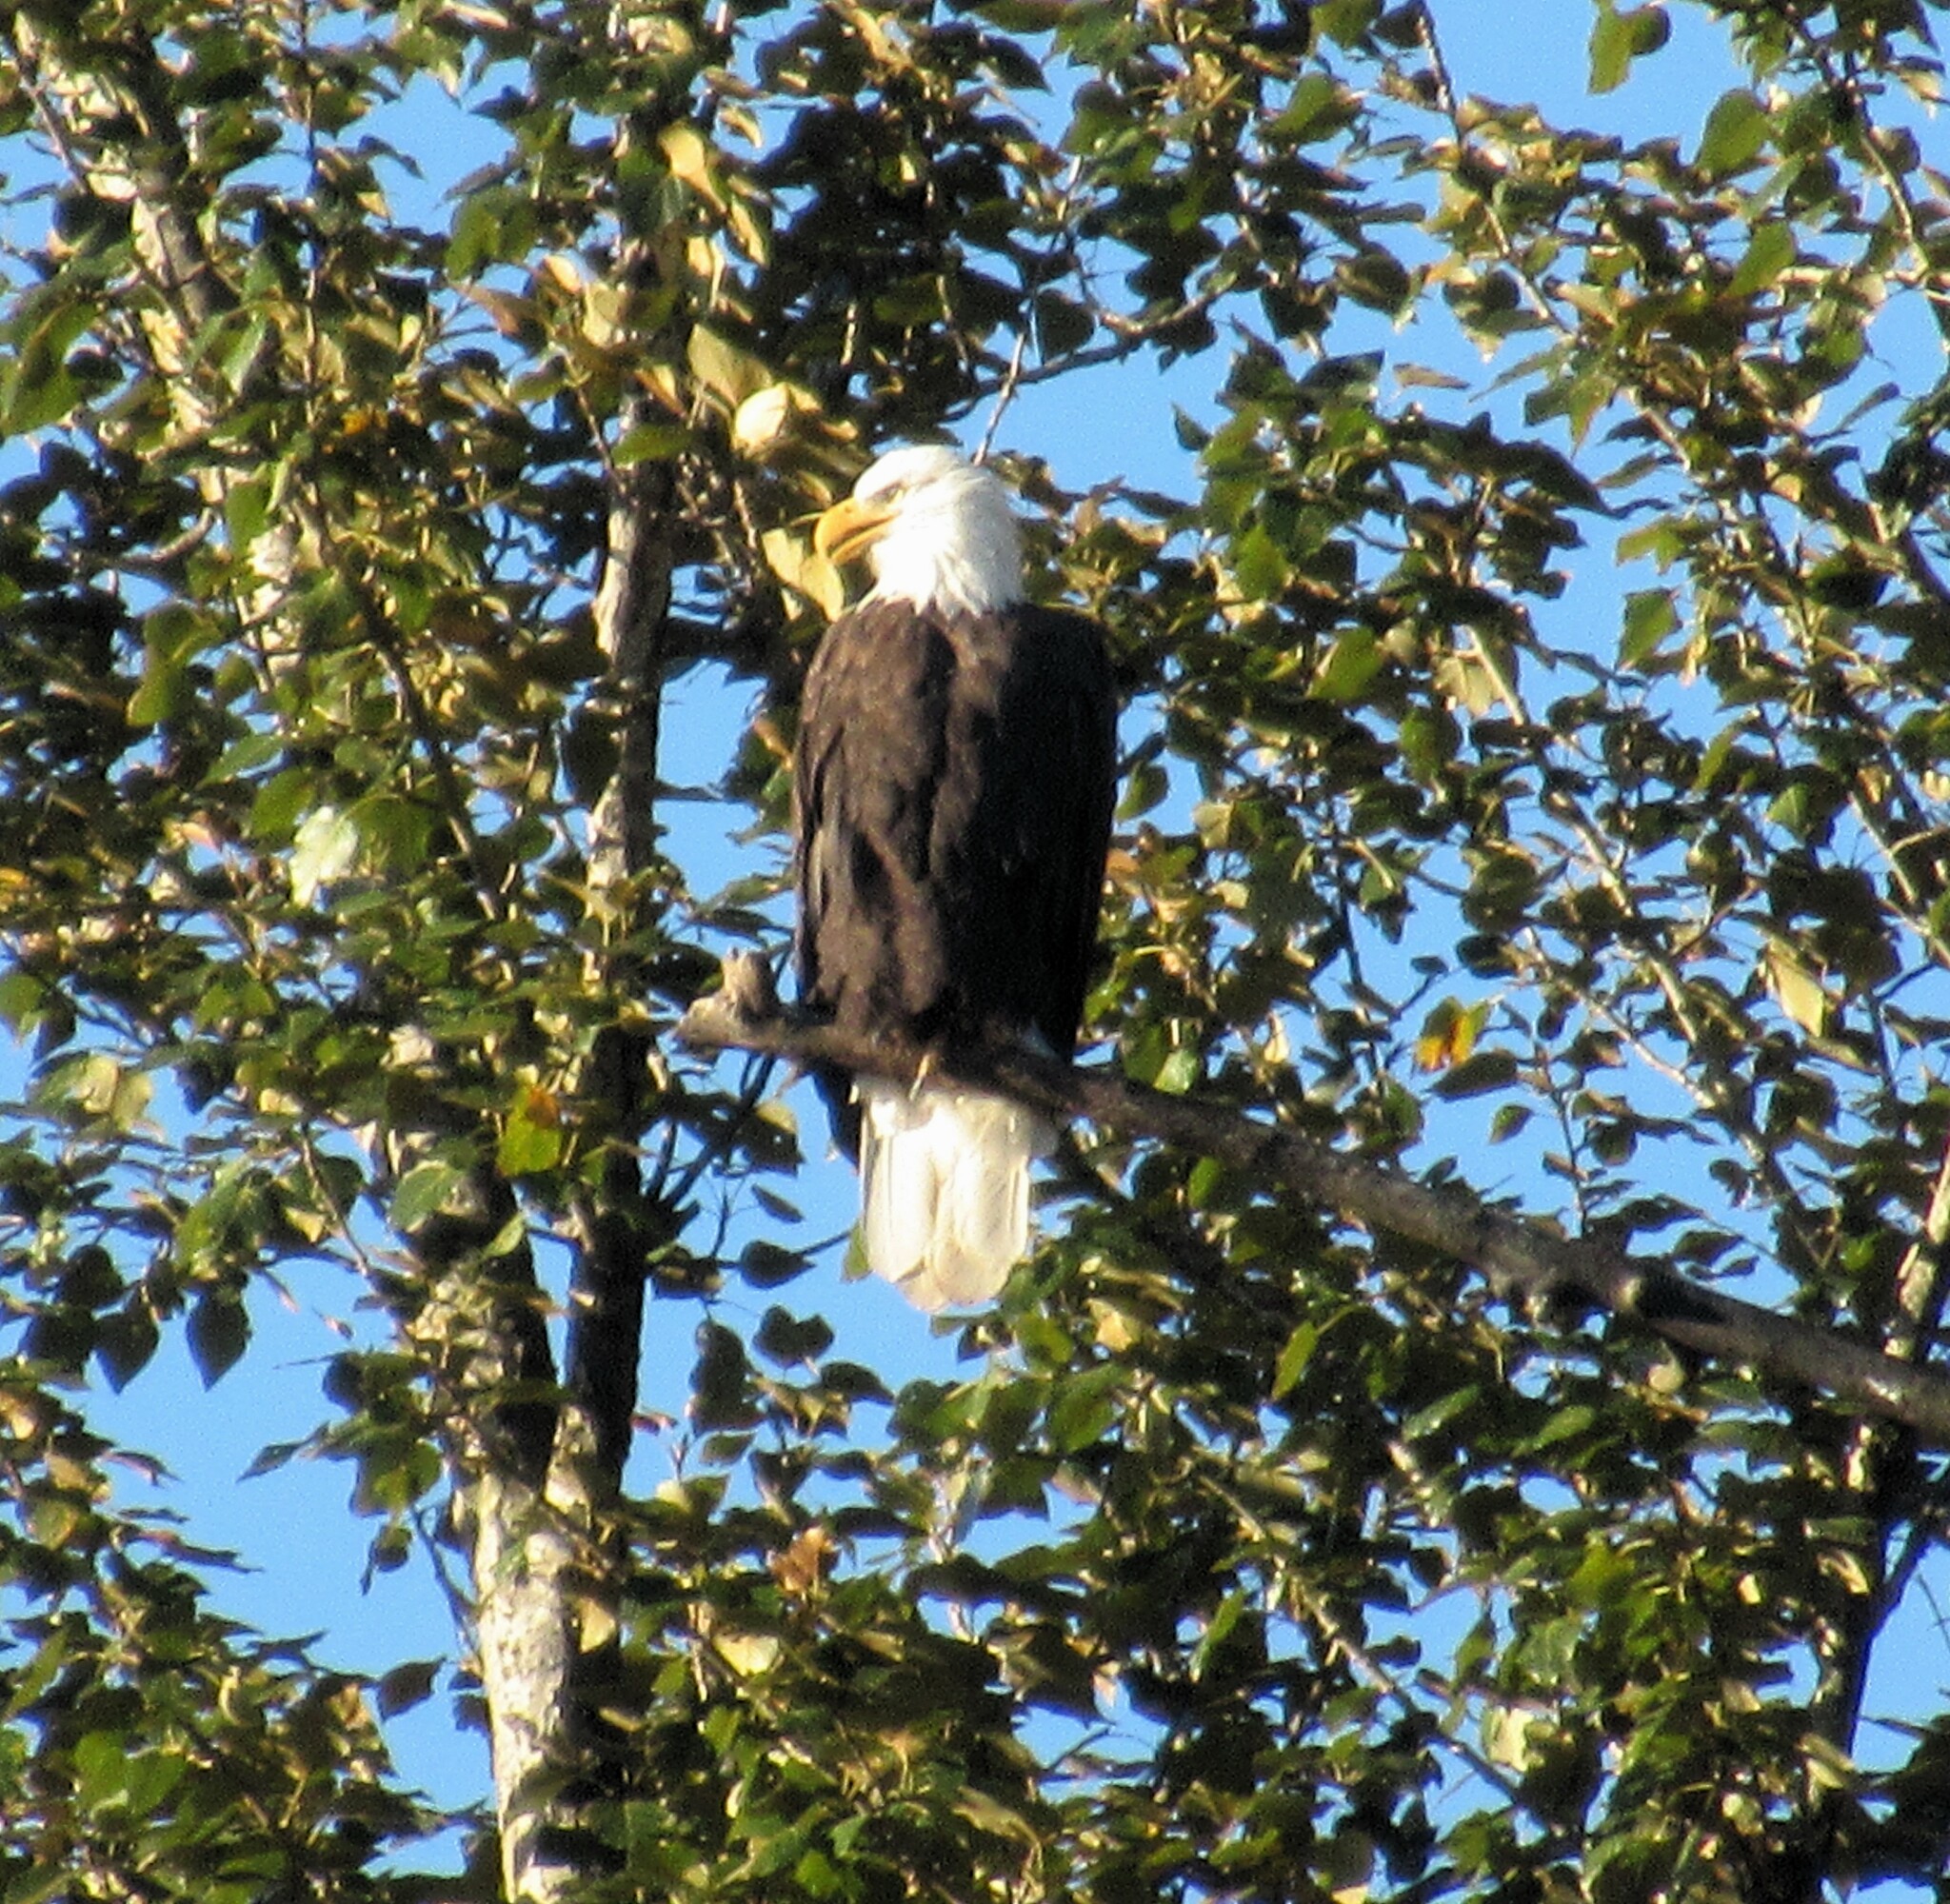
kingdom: Animalia
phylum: Chordata
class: Aves
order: Accipitriformes
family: Accipitridae
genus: Haliaeetus
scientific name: Haliaeetus leucocephalus
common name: Bald eagle
